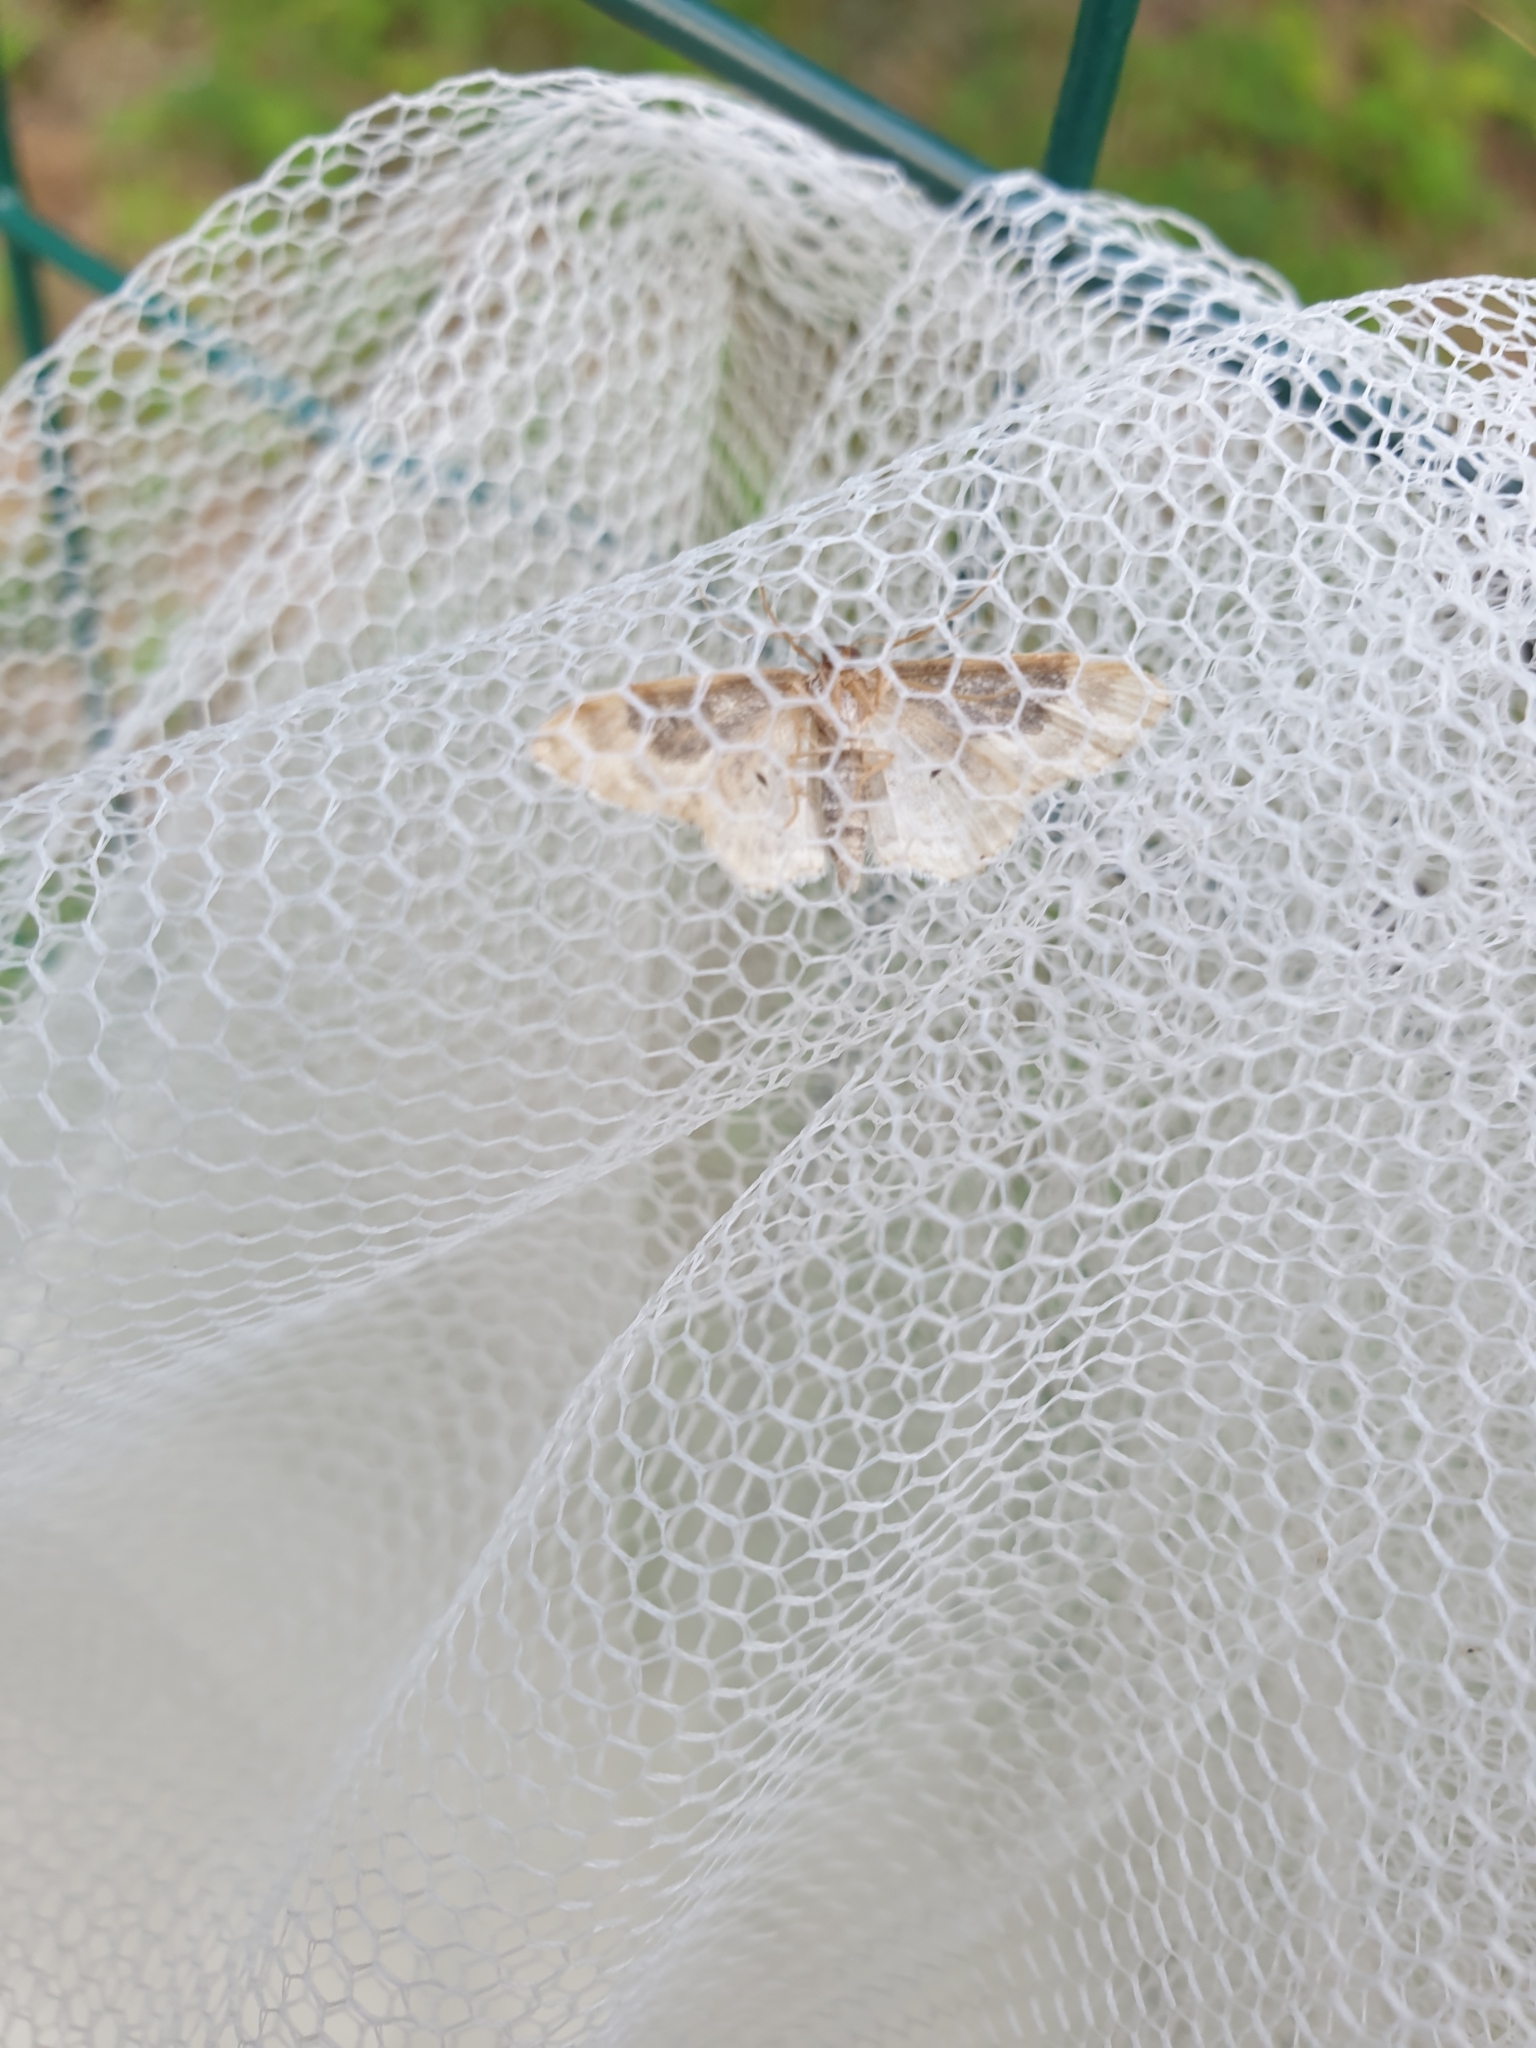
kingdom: Animalia
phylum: Arthropoda
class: Insecta
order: Lepidoptera
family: Geometridae
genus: Idaea
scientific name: Idaea rusticata
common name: Least carpet
